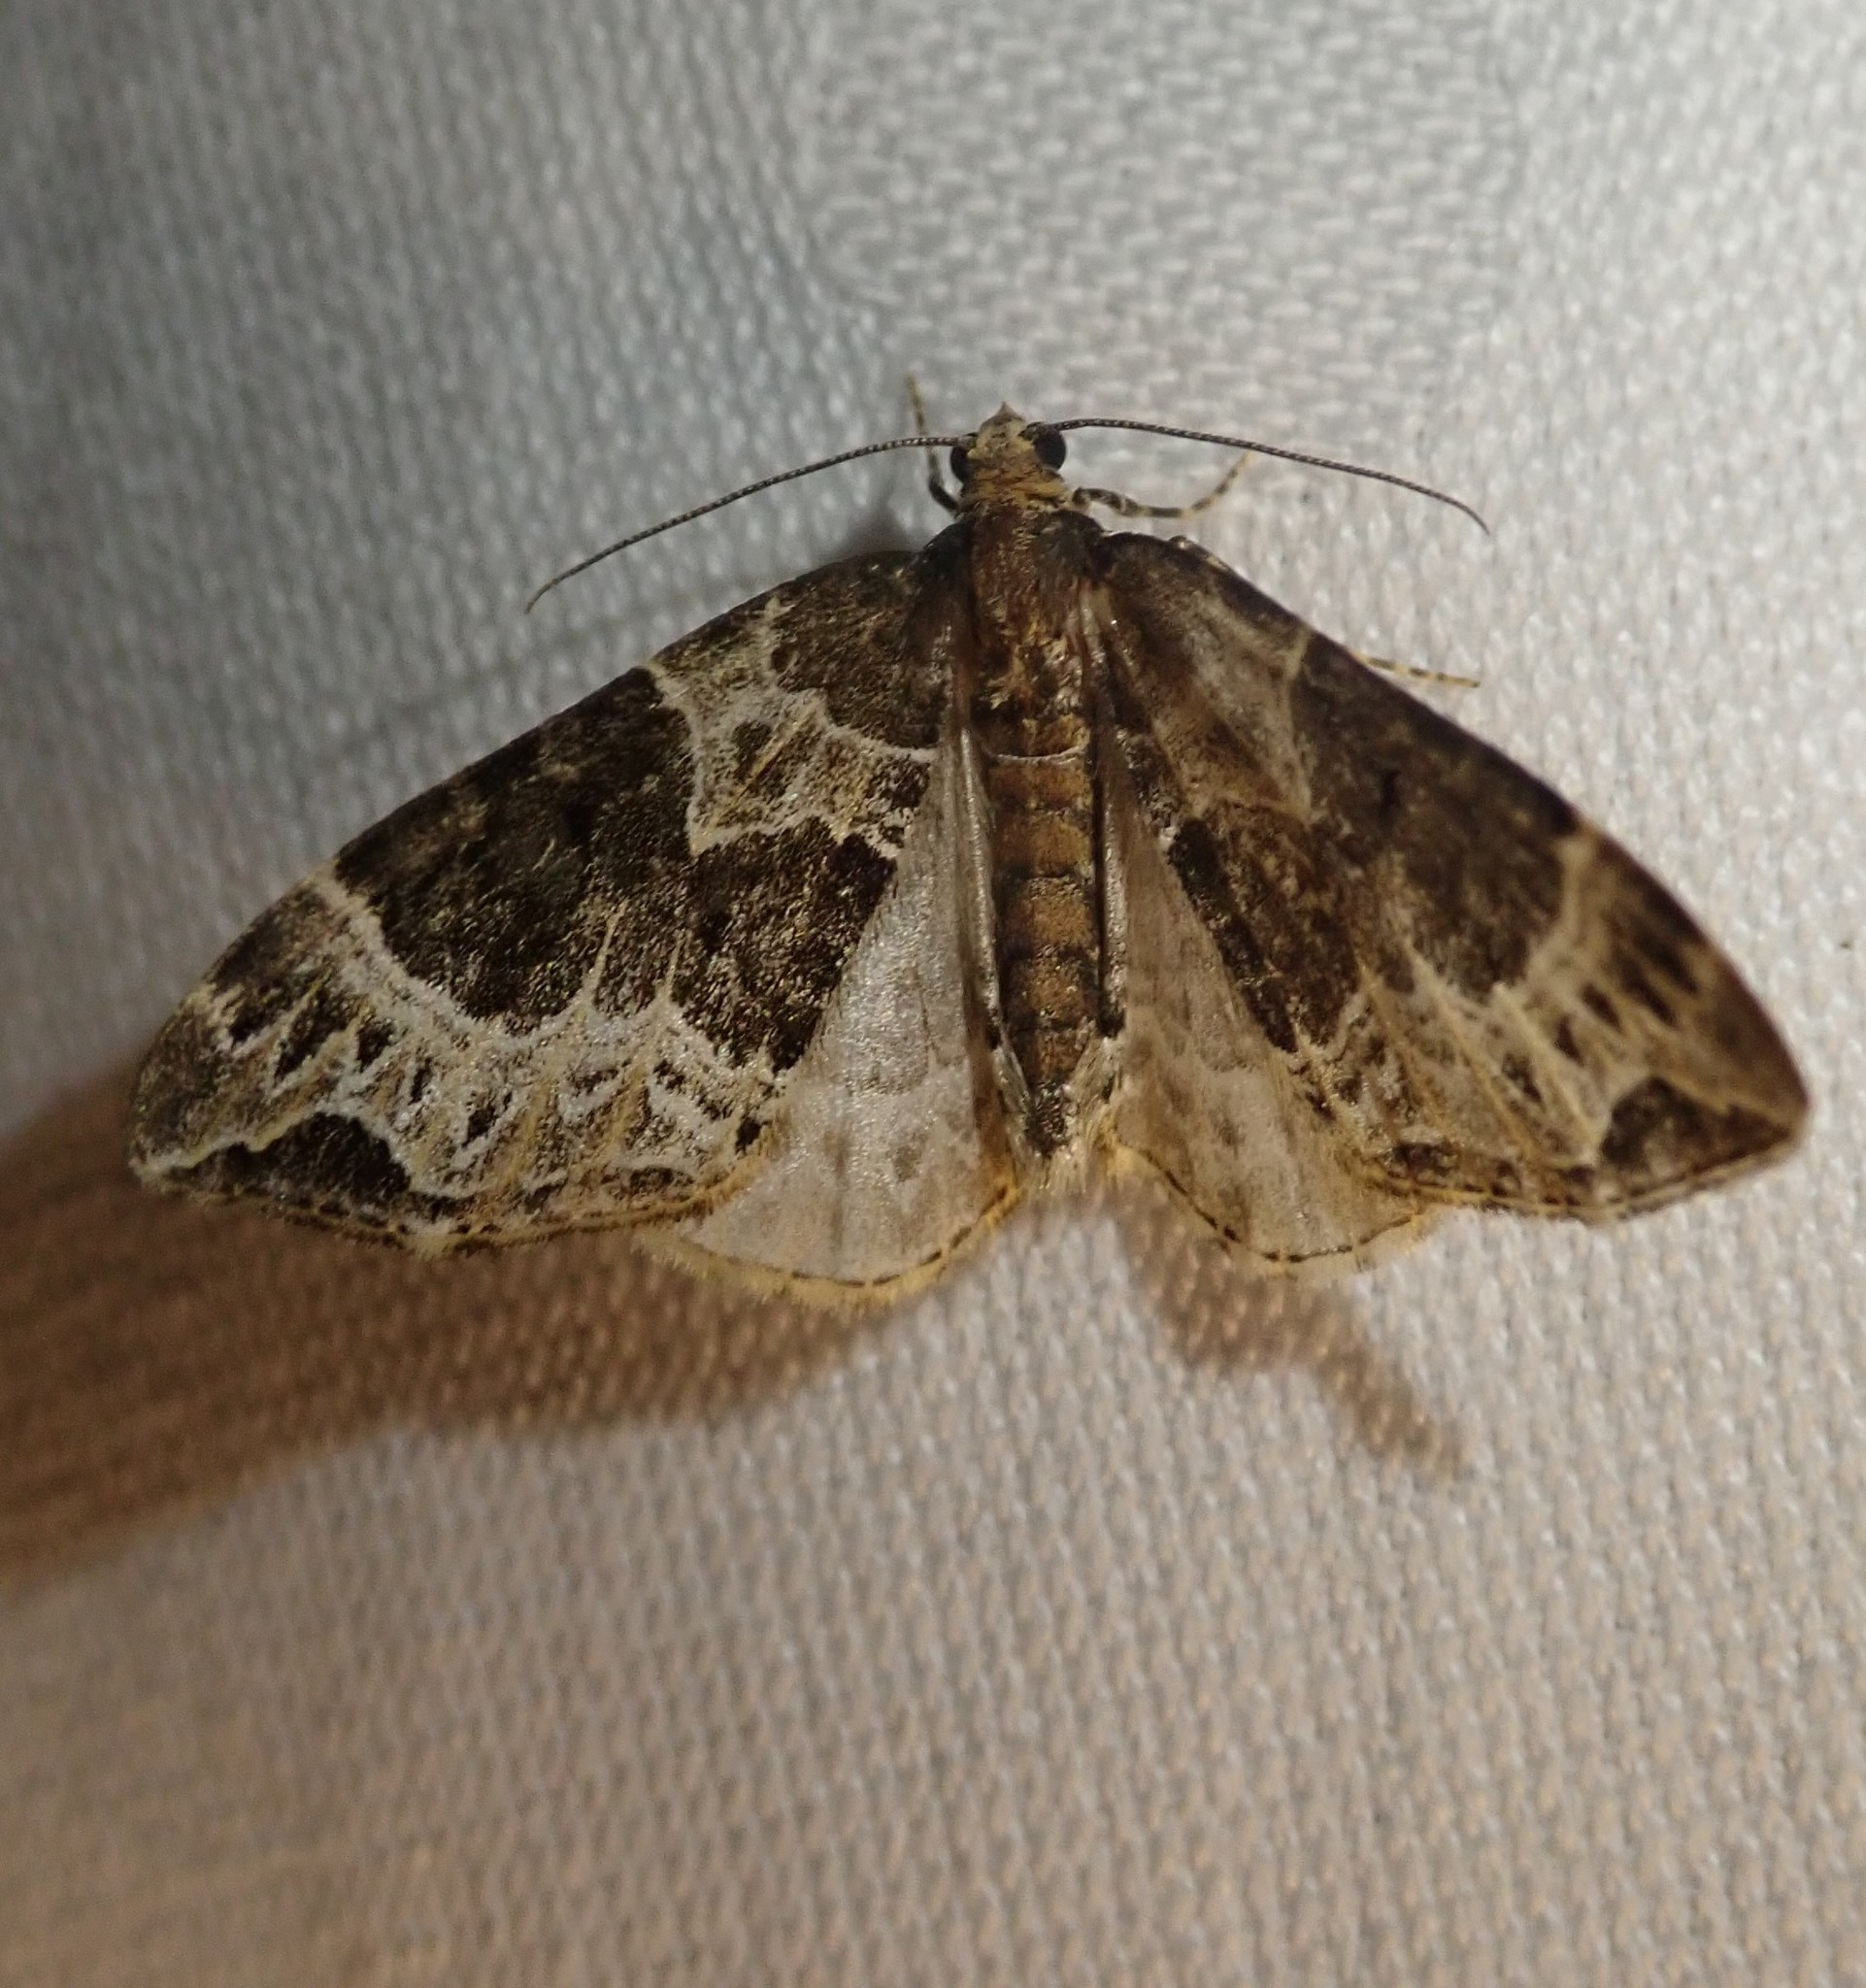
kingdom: Animalia
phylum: Arthropoda
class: Insecta
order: Lepidoptera
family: Geometridae
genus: Ecliptopera
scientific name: Ecliptopera silaceata
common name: Small phoenix
